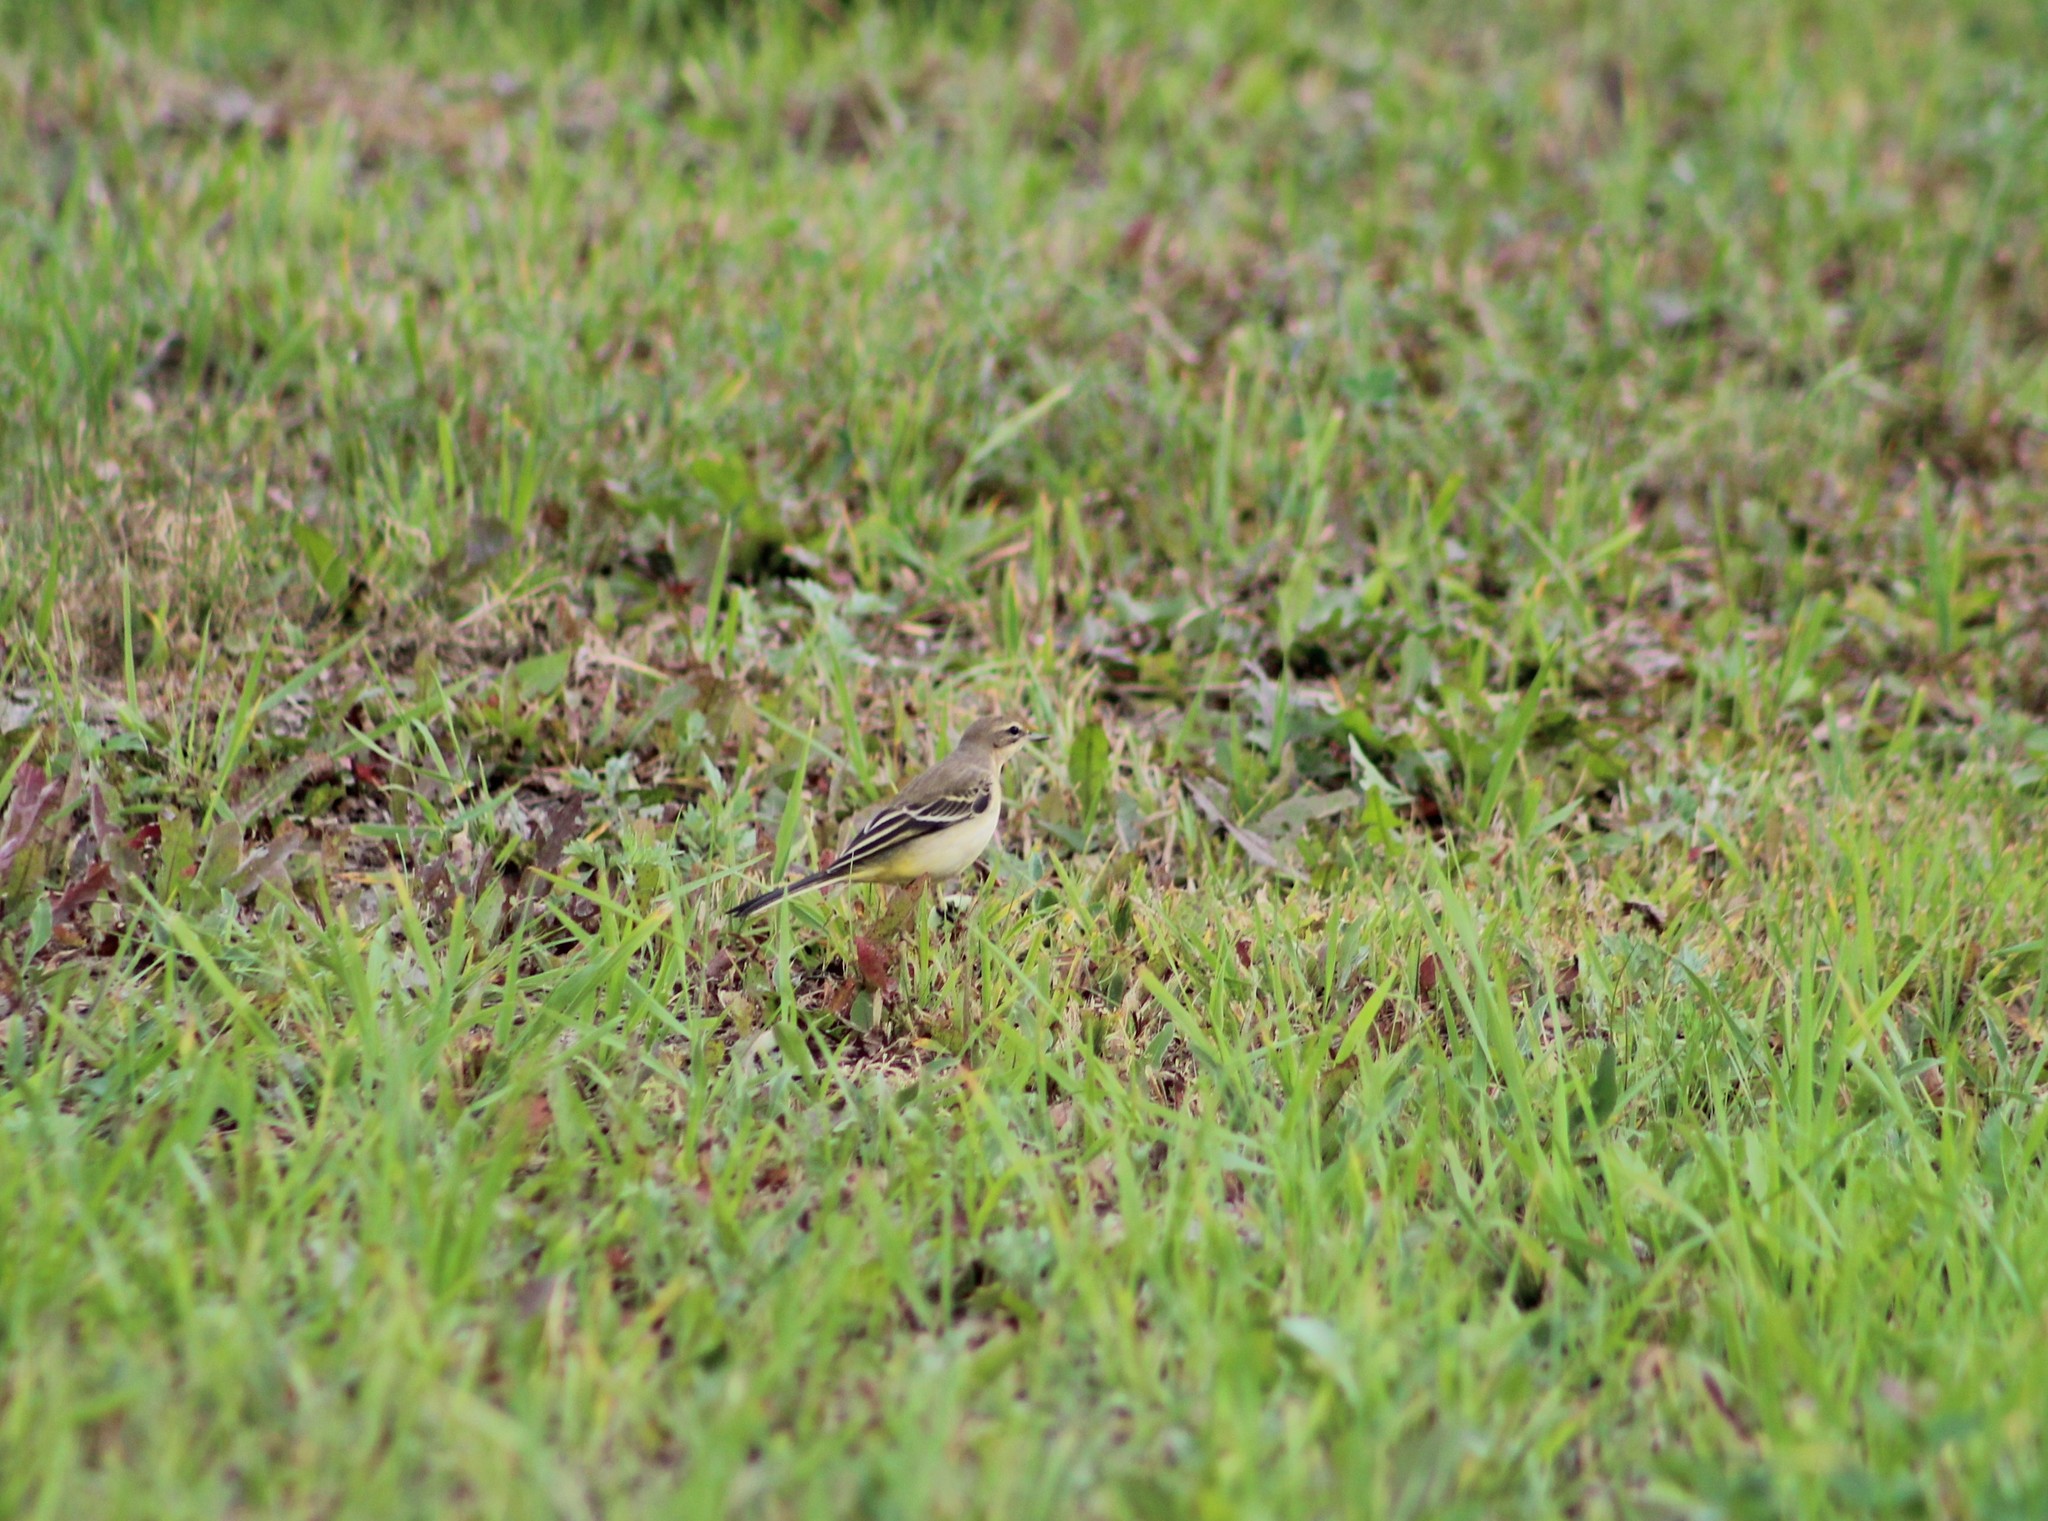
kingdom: Animalia
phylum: Chordata
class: Aves
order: Passeriformes
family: Motacillidae
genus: Motacilla
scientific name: Motacilla flava
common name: Western yellow wagtail
